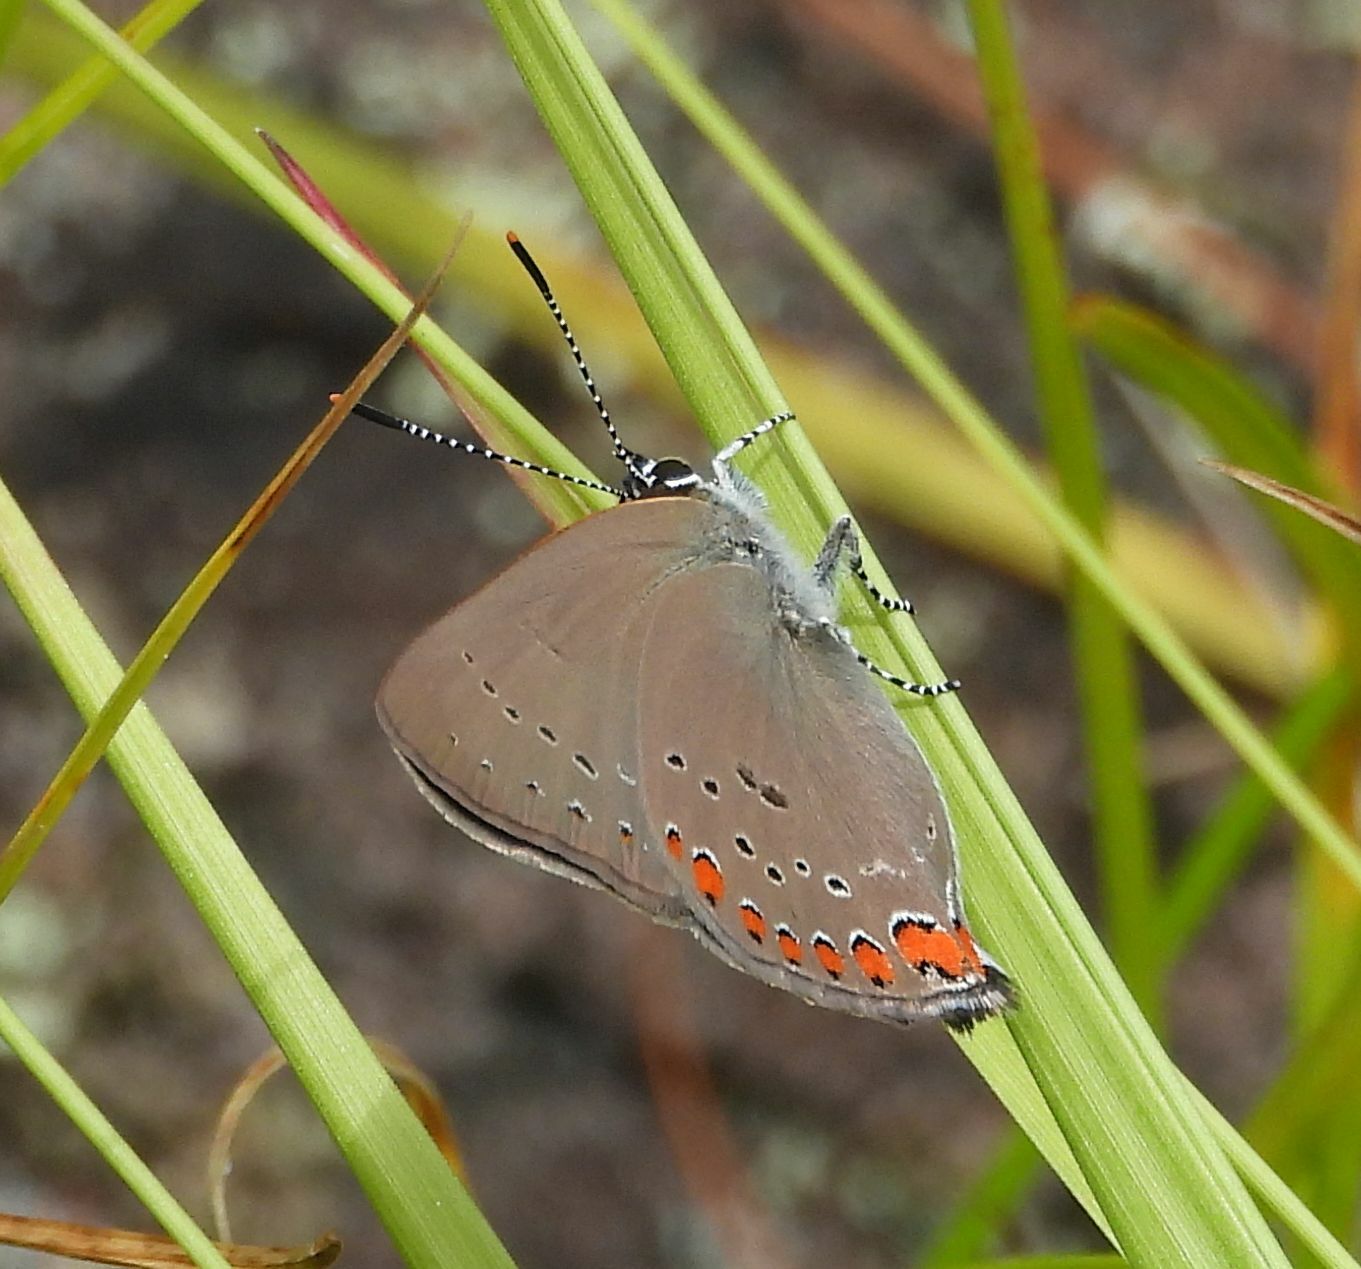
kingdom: Animalia
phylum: Arthropoda
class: Insecta
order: Lepidoptera
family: Lycaenidae
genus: Harkenclenus
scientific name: Harkenclenus titus
